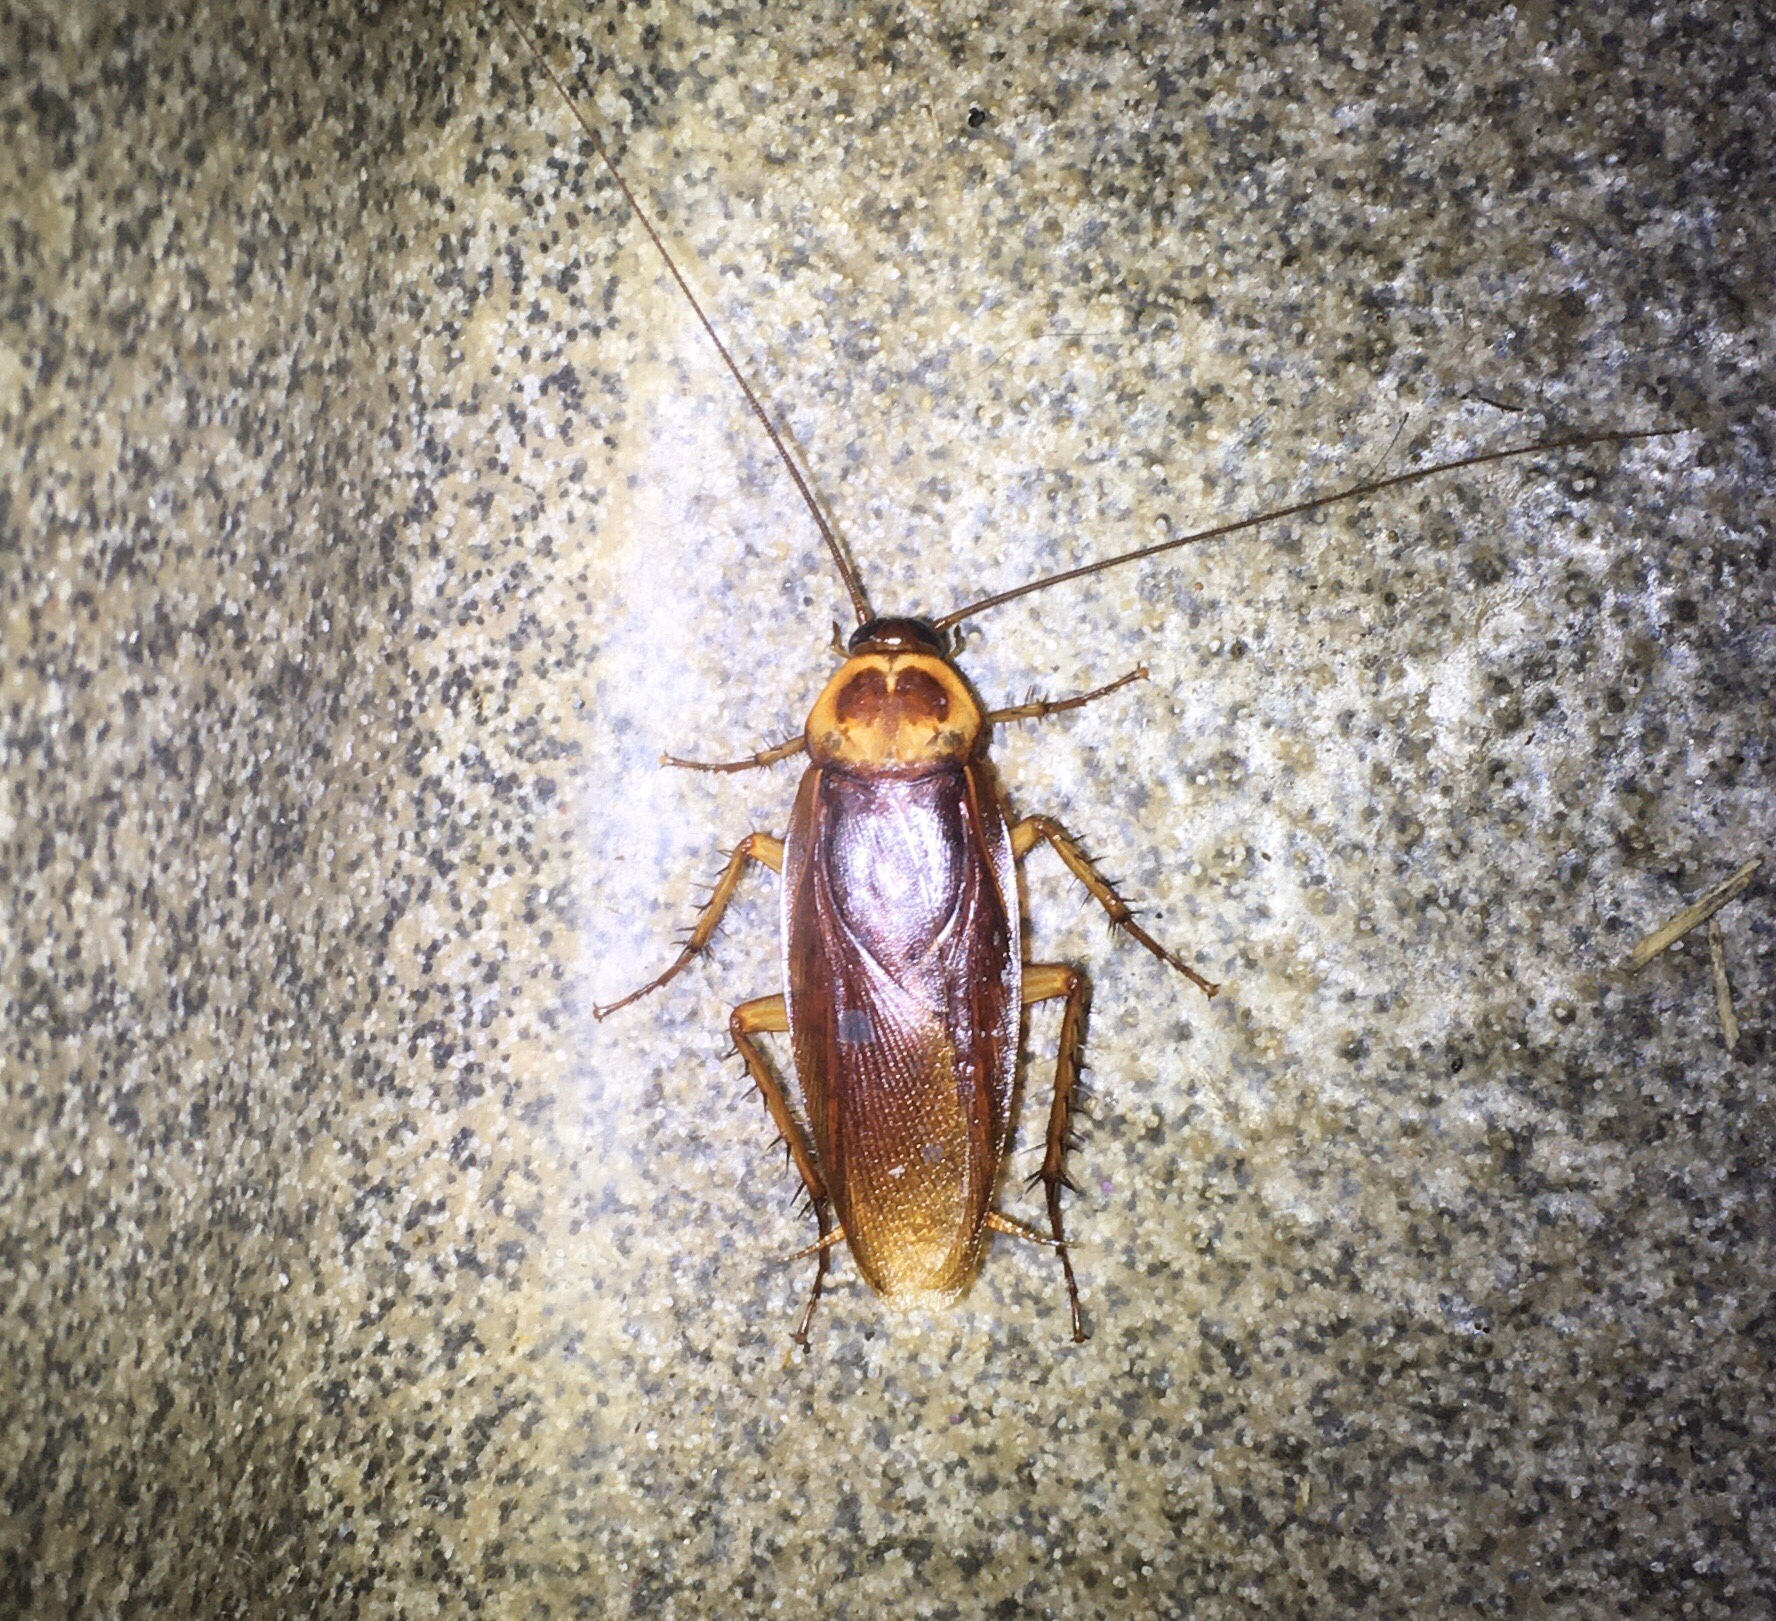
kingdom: Animalia
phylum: Arthropoda
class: Insecta
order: Blattodea
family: Blattidae
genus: Periplaneta
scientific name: Periplaneta americana
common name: American cockroach
